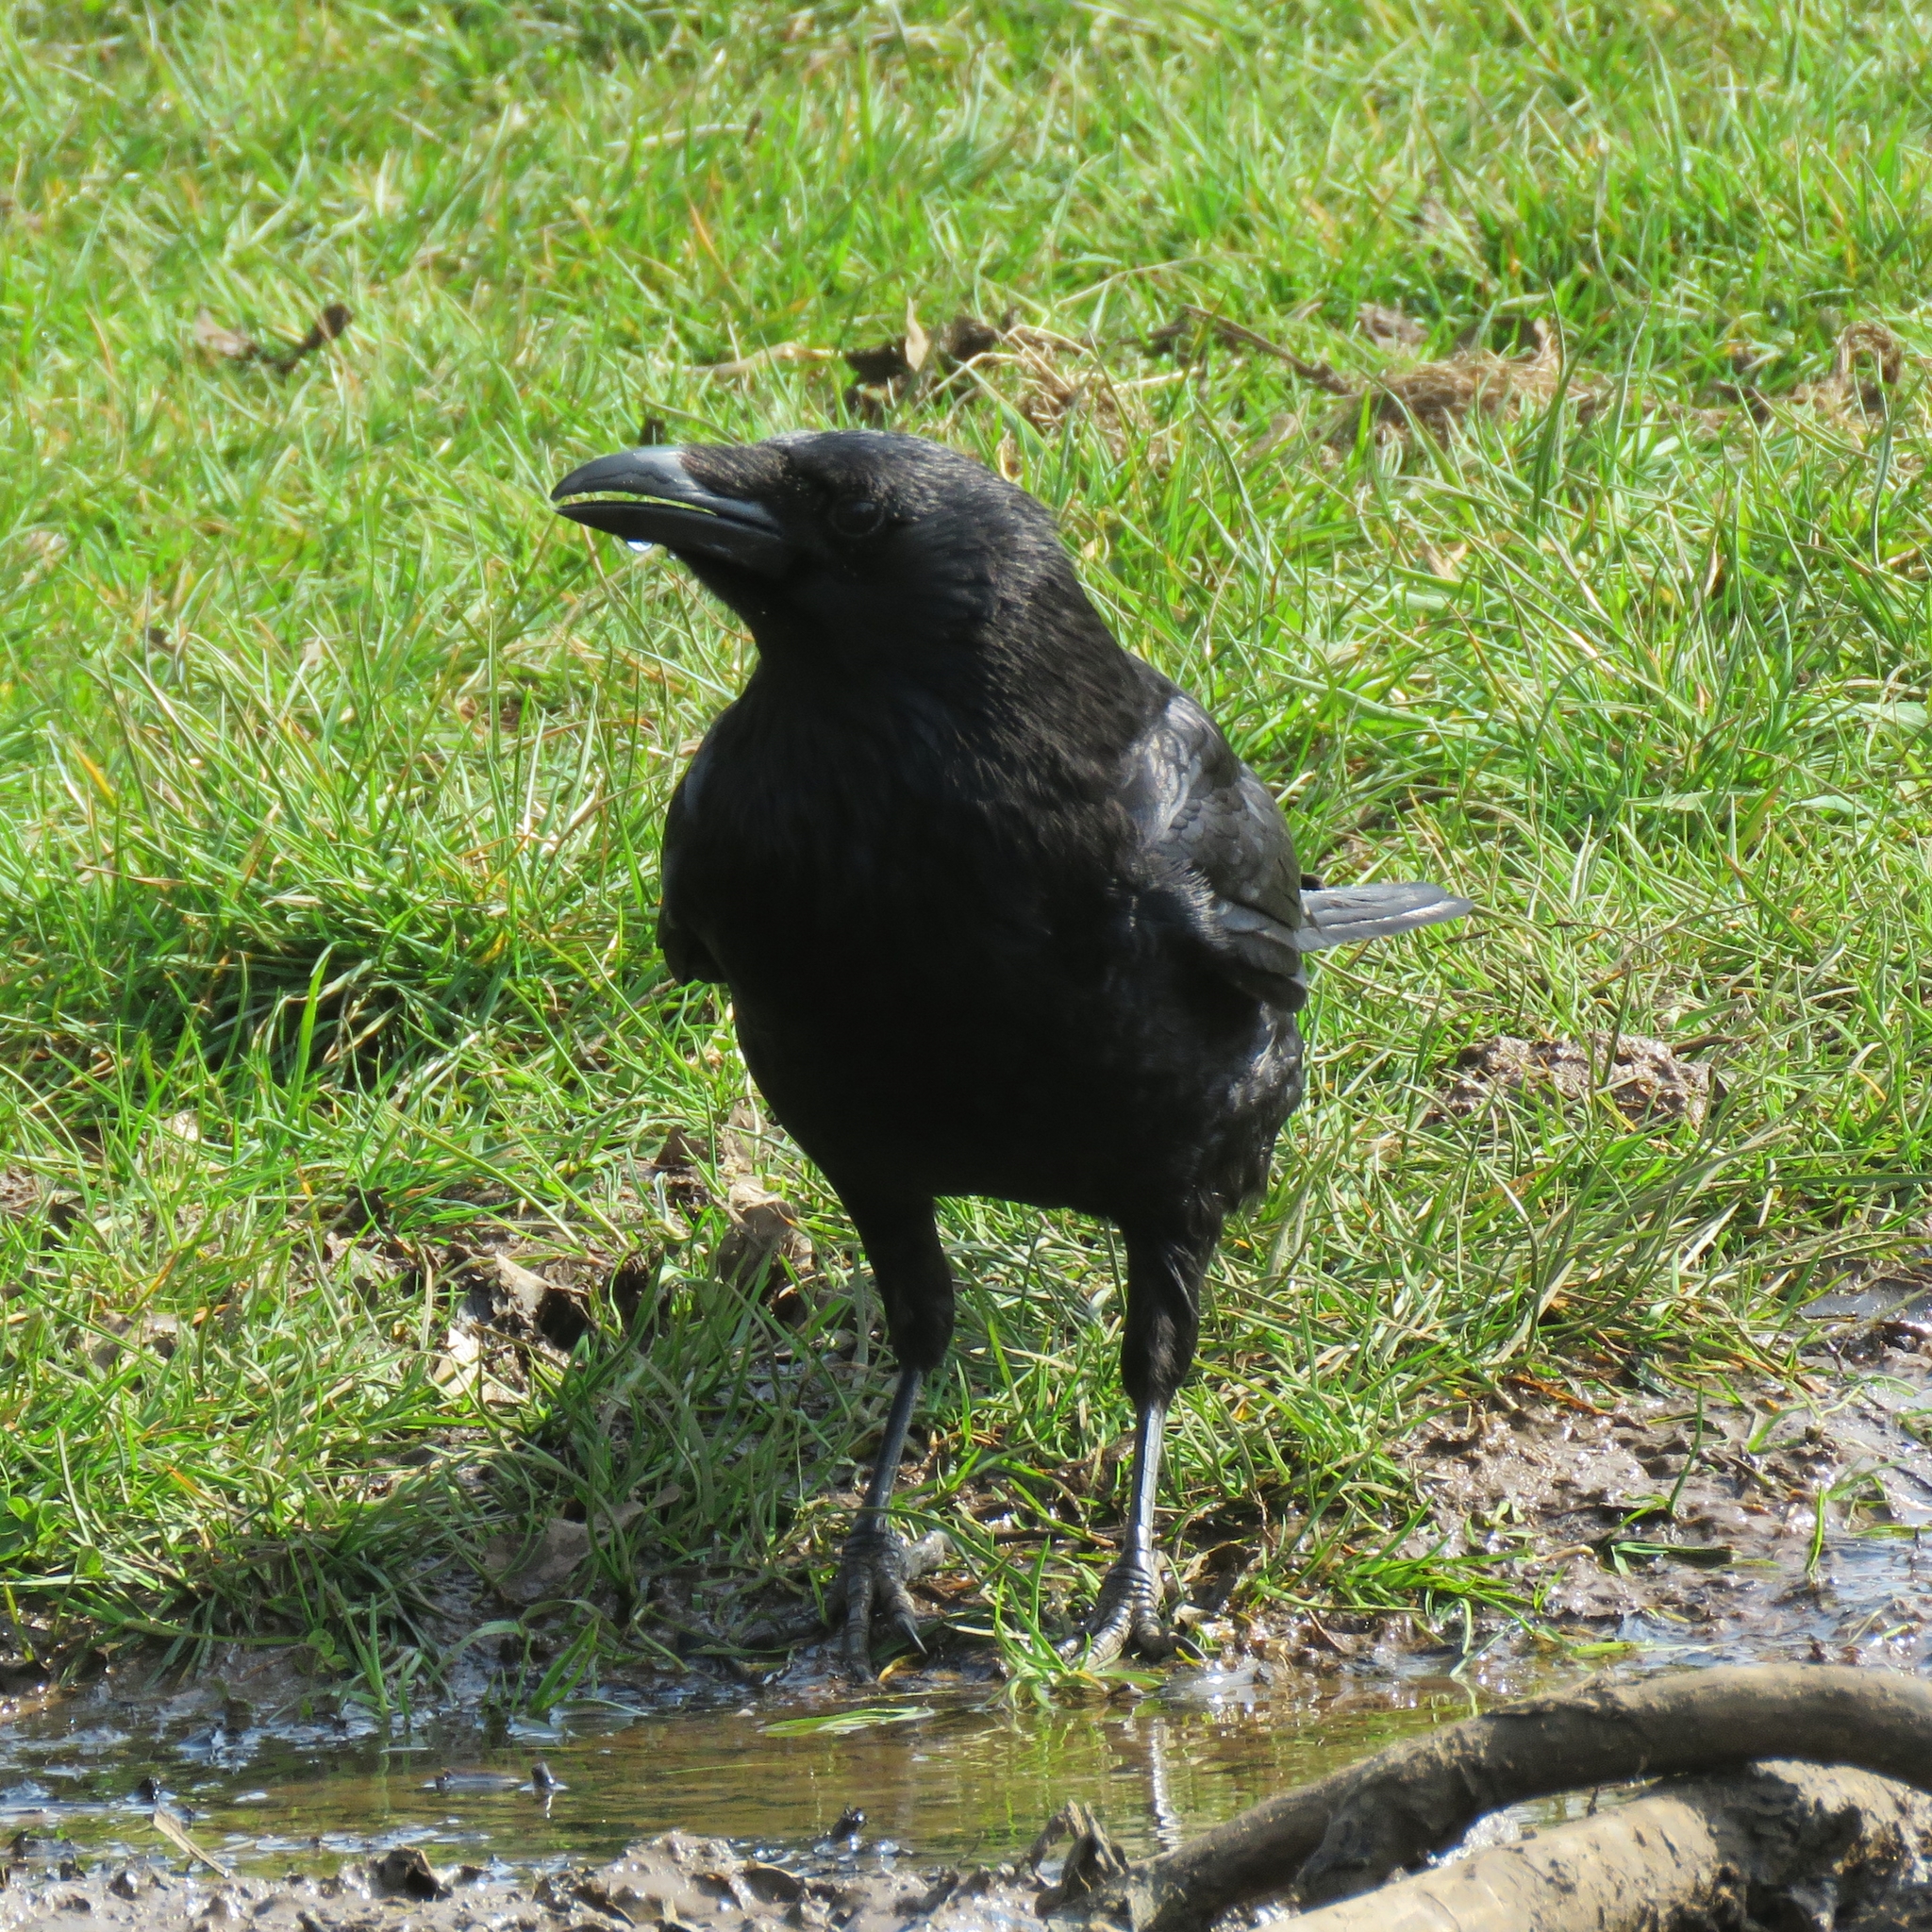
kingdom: Animalia
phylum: Chordata
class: Aves
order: Passeriformes
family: Corvidae
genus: Corvus
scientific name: Corvus corone
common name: Carrion crow
